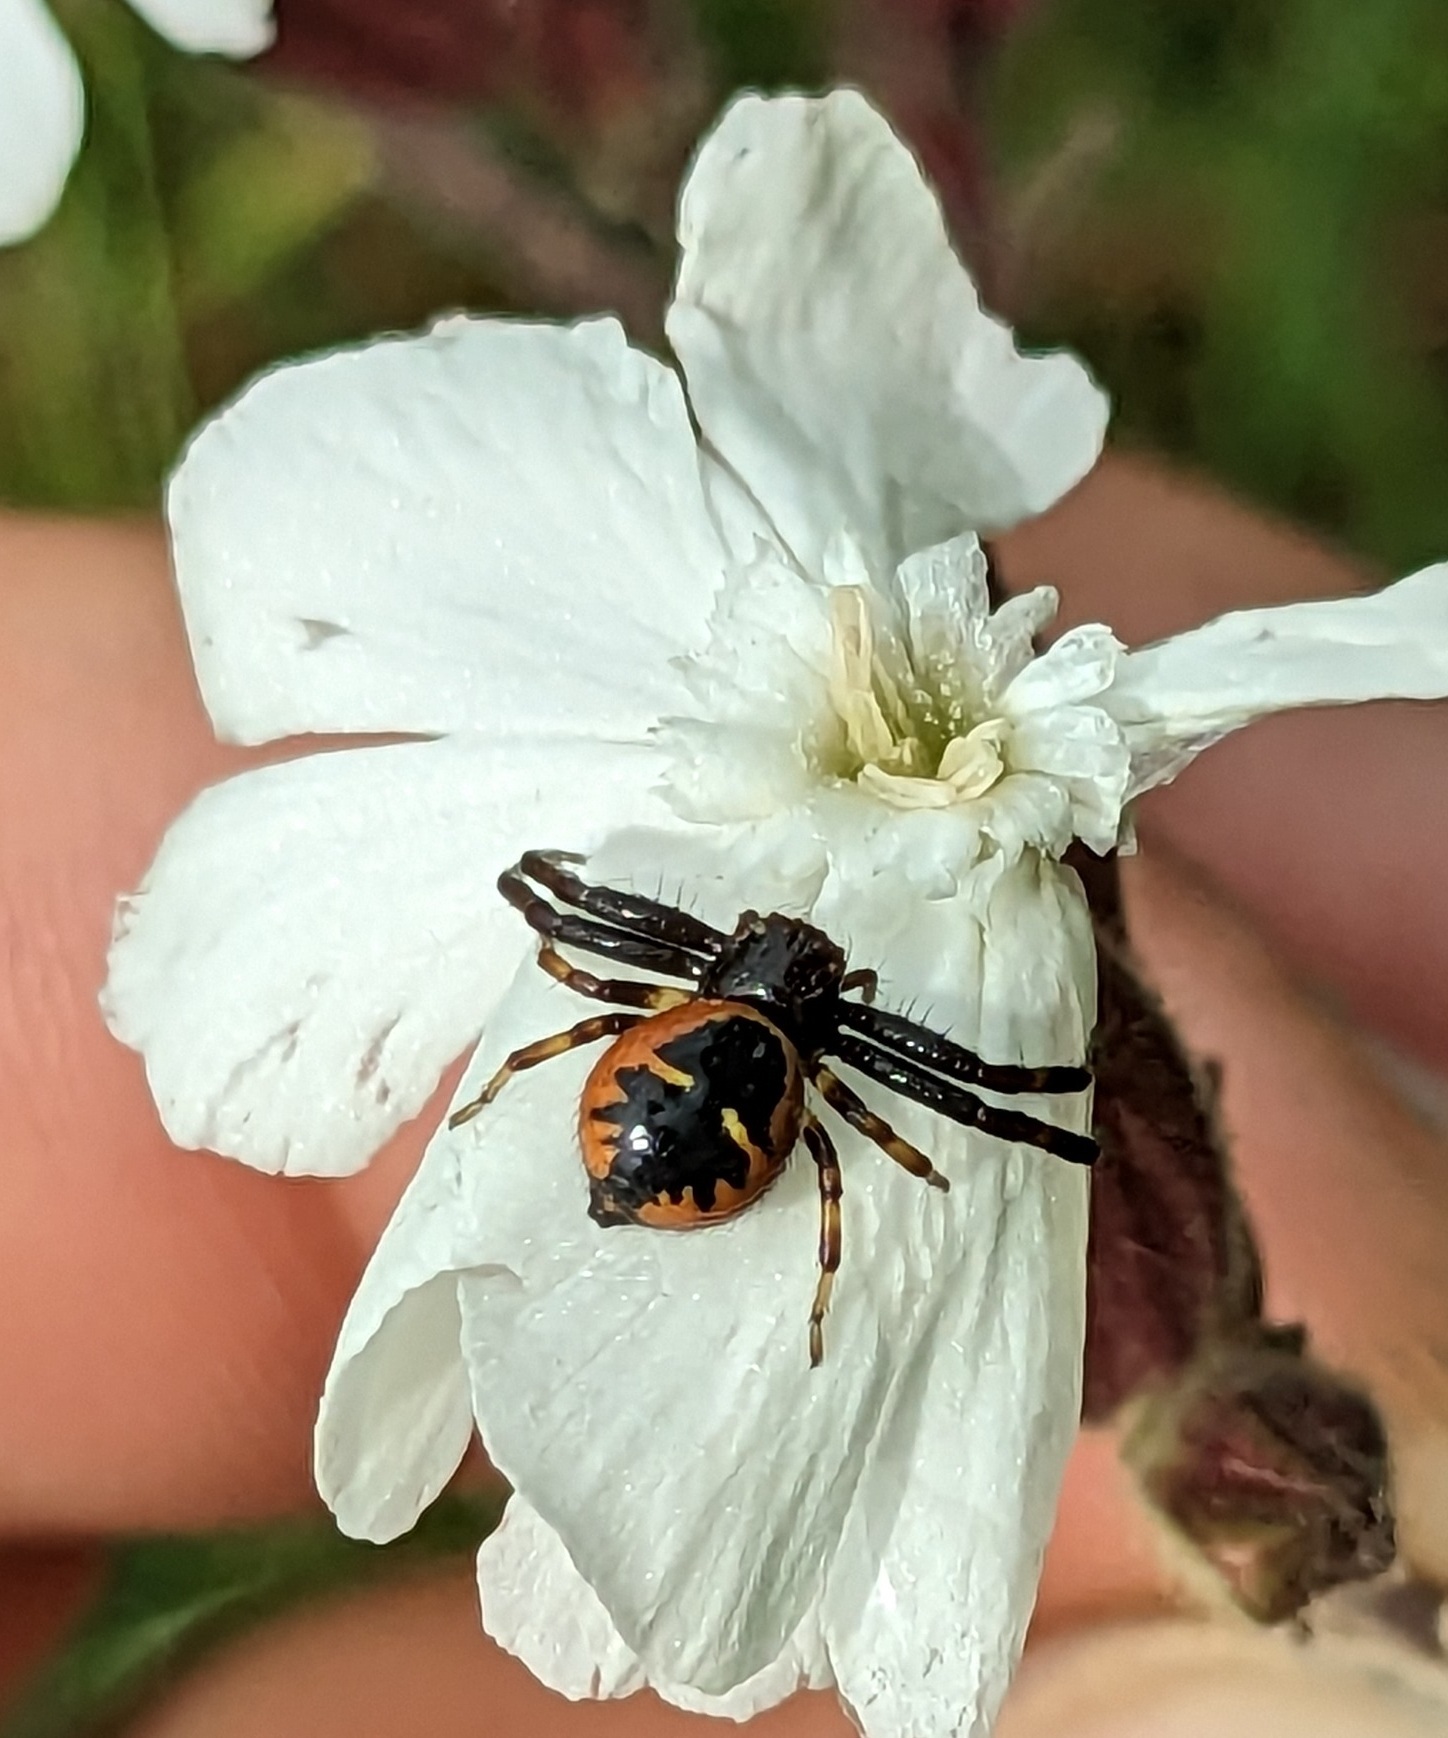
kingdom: Animalia
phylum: Arthropoda
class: Arachnida
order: Araneae
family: Thomisidae
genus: Synema
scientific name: Synema globosum
